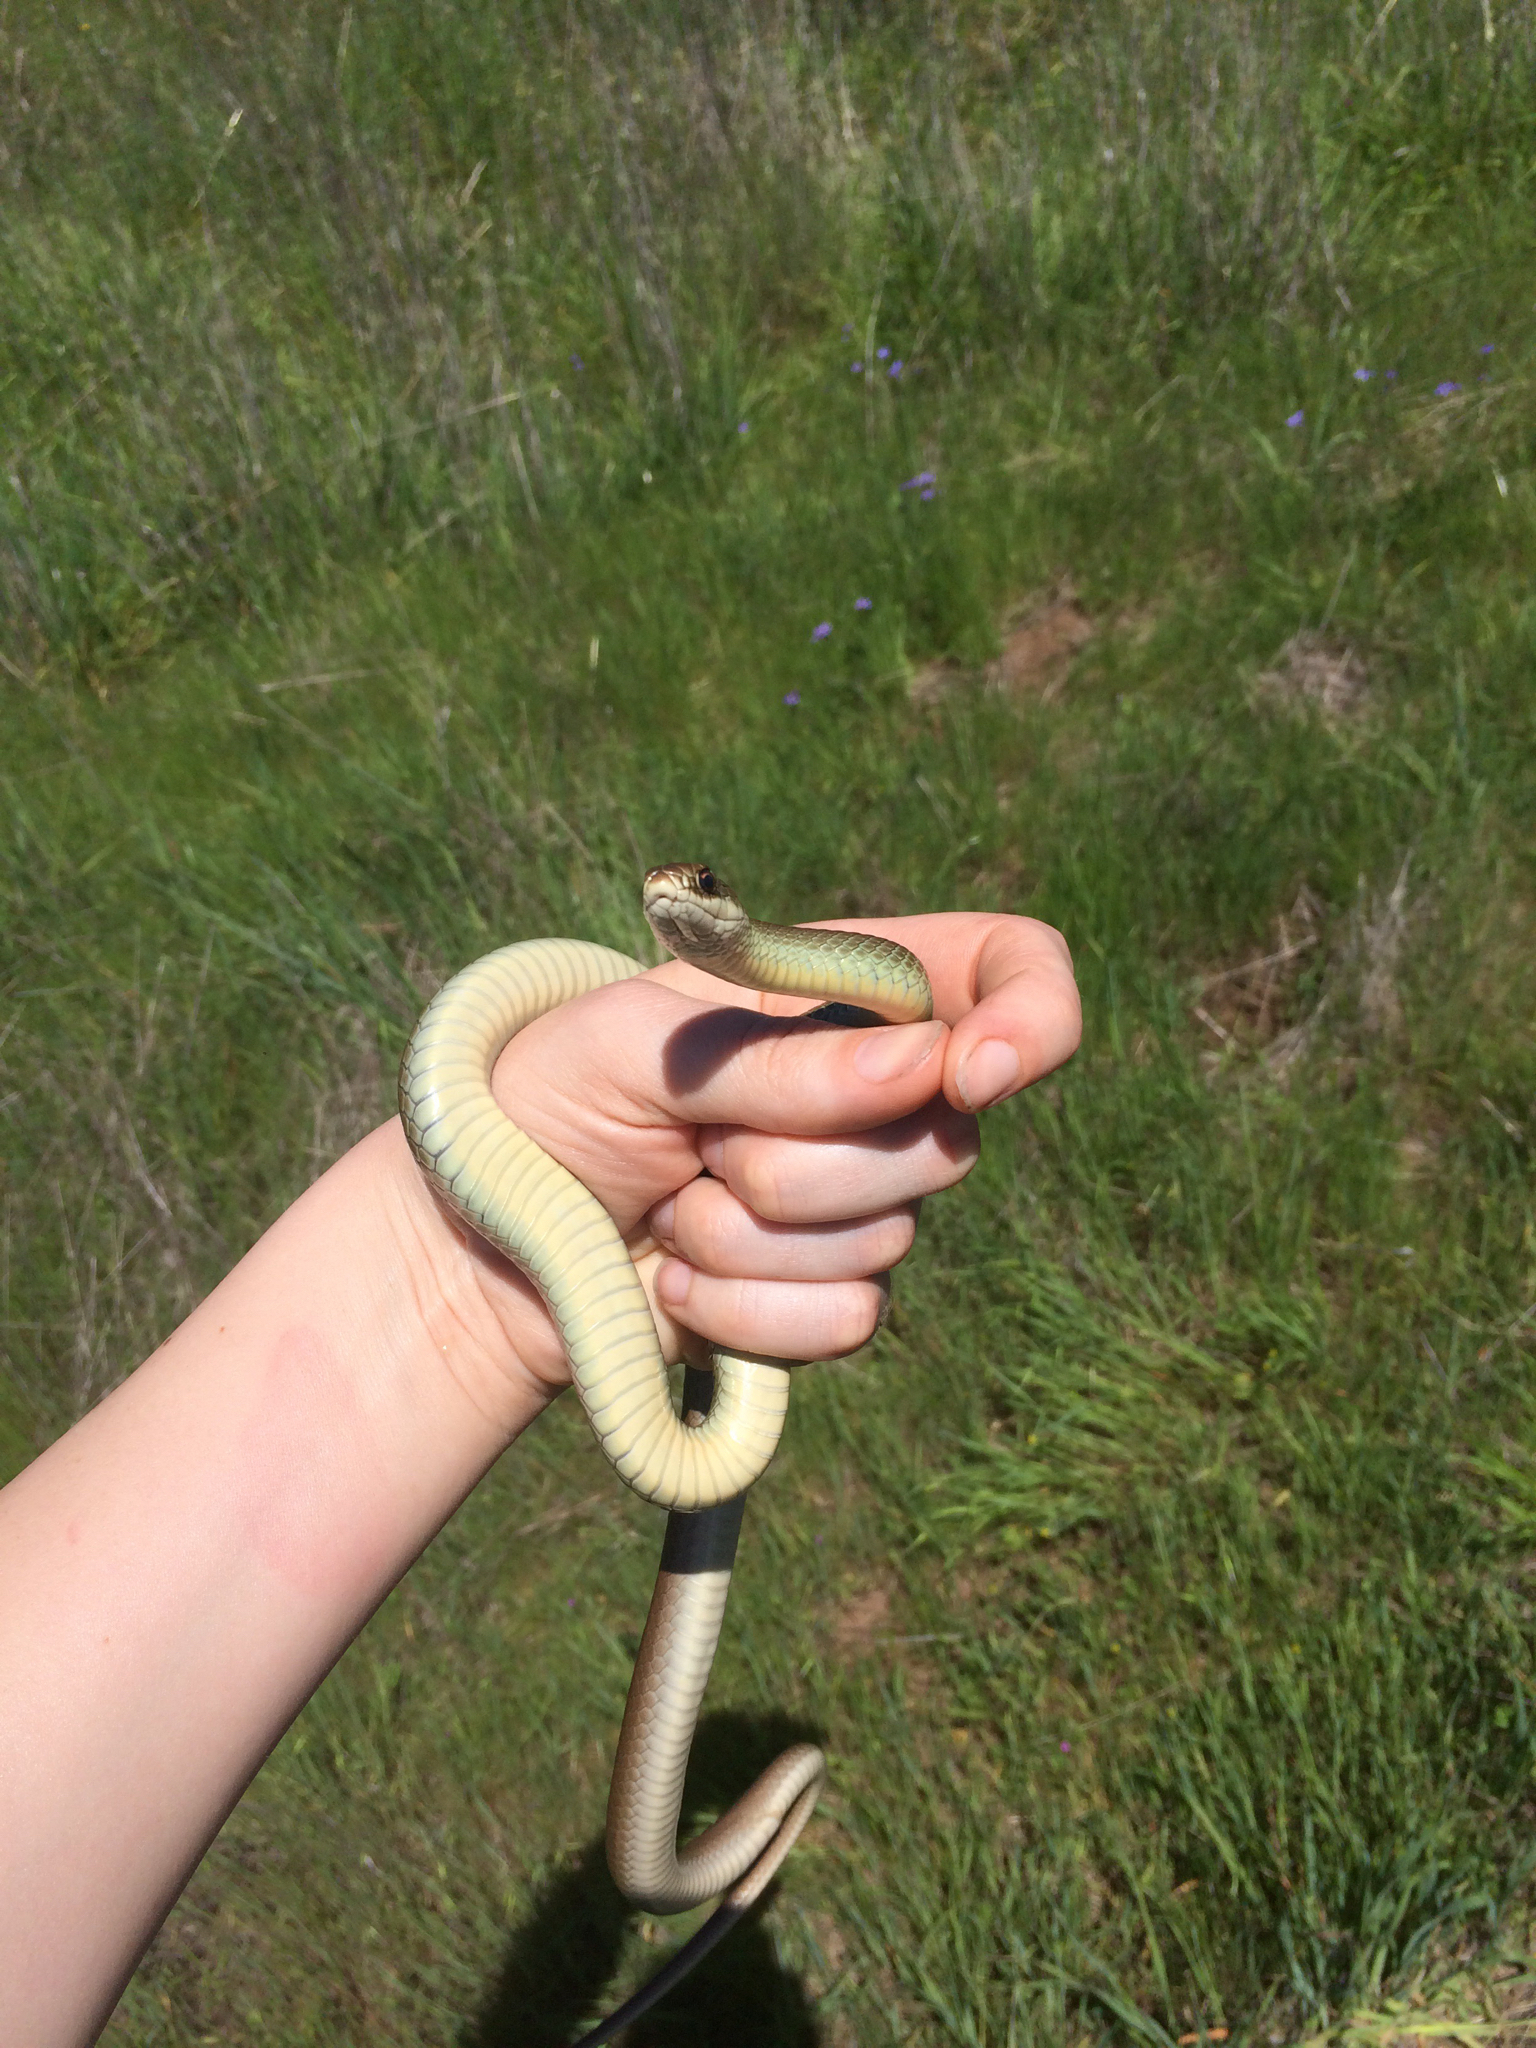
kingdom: Animalia
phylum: Chordata
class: Squamata
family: Colubridae
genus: Coluber
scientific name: Coluber constrictor
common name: Eastern racer
